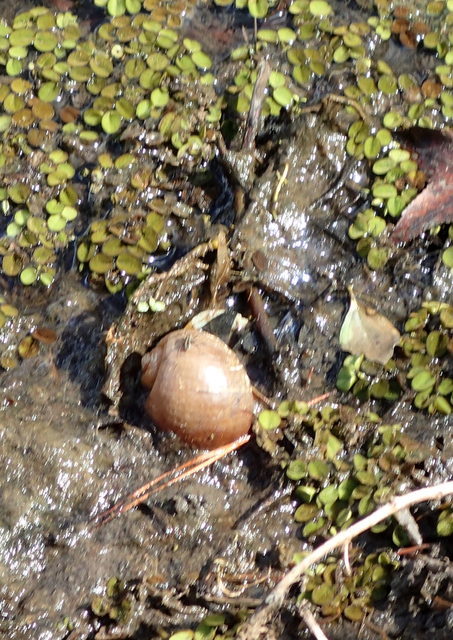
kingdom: Animalia
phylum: Mollusca
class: Gastropoda
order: Architaenioglossa
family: Ampullariidae
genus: Pomacea
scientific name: Pomacea maculata
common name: Giant applesnail
